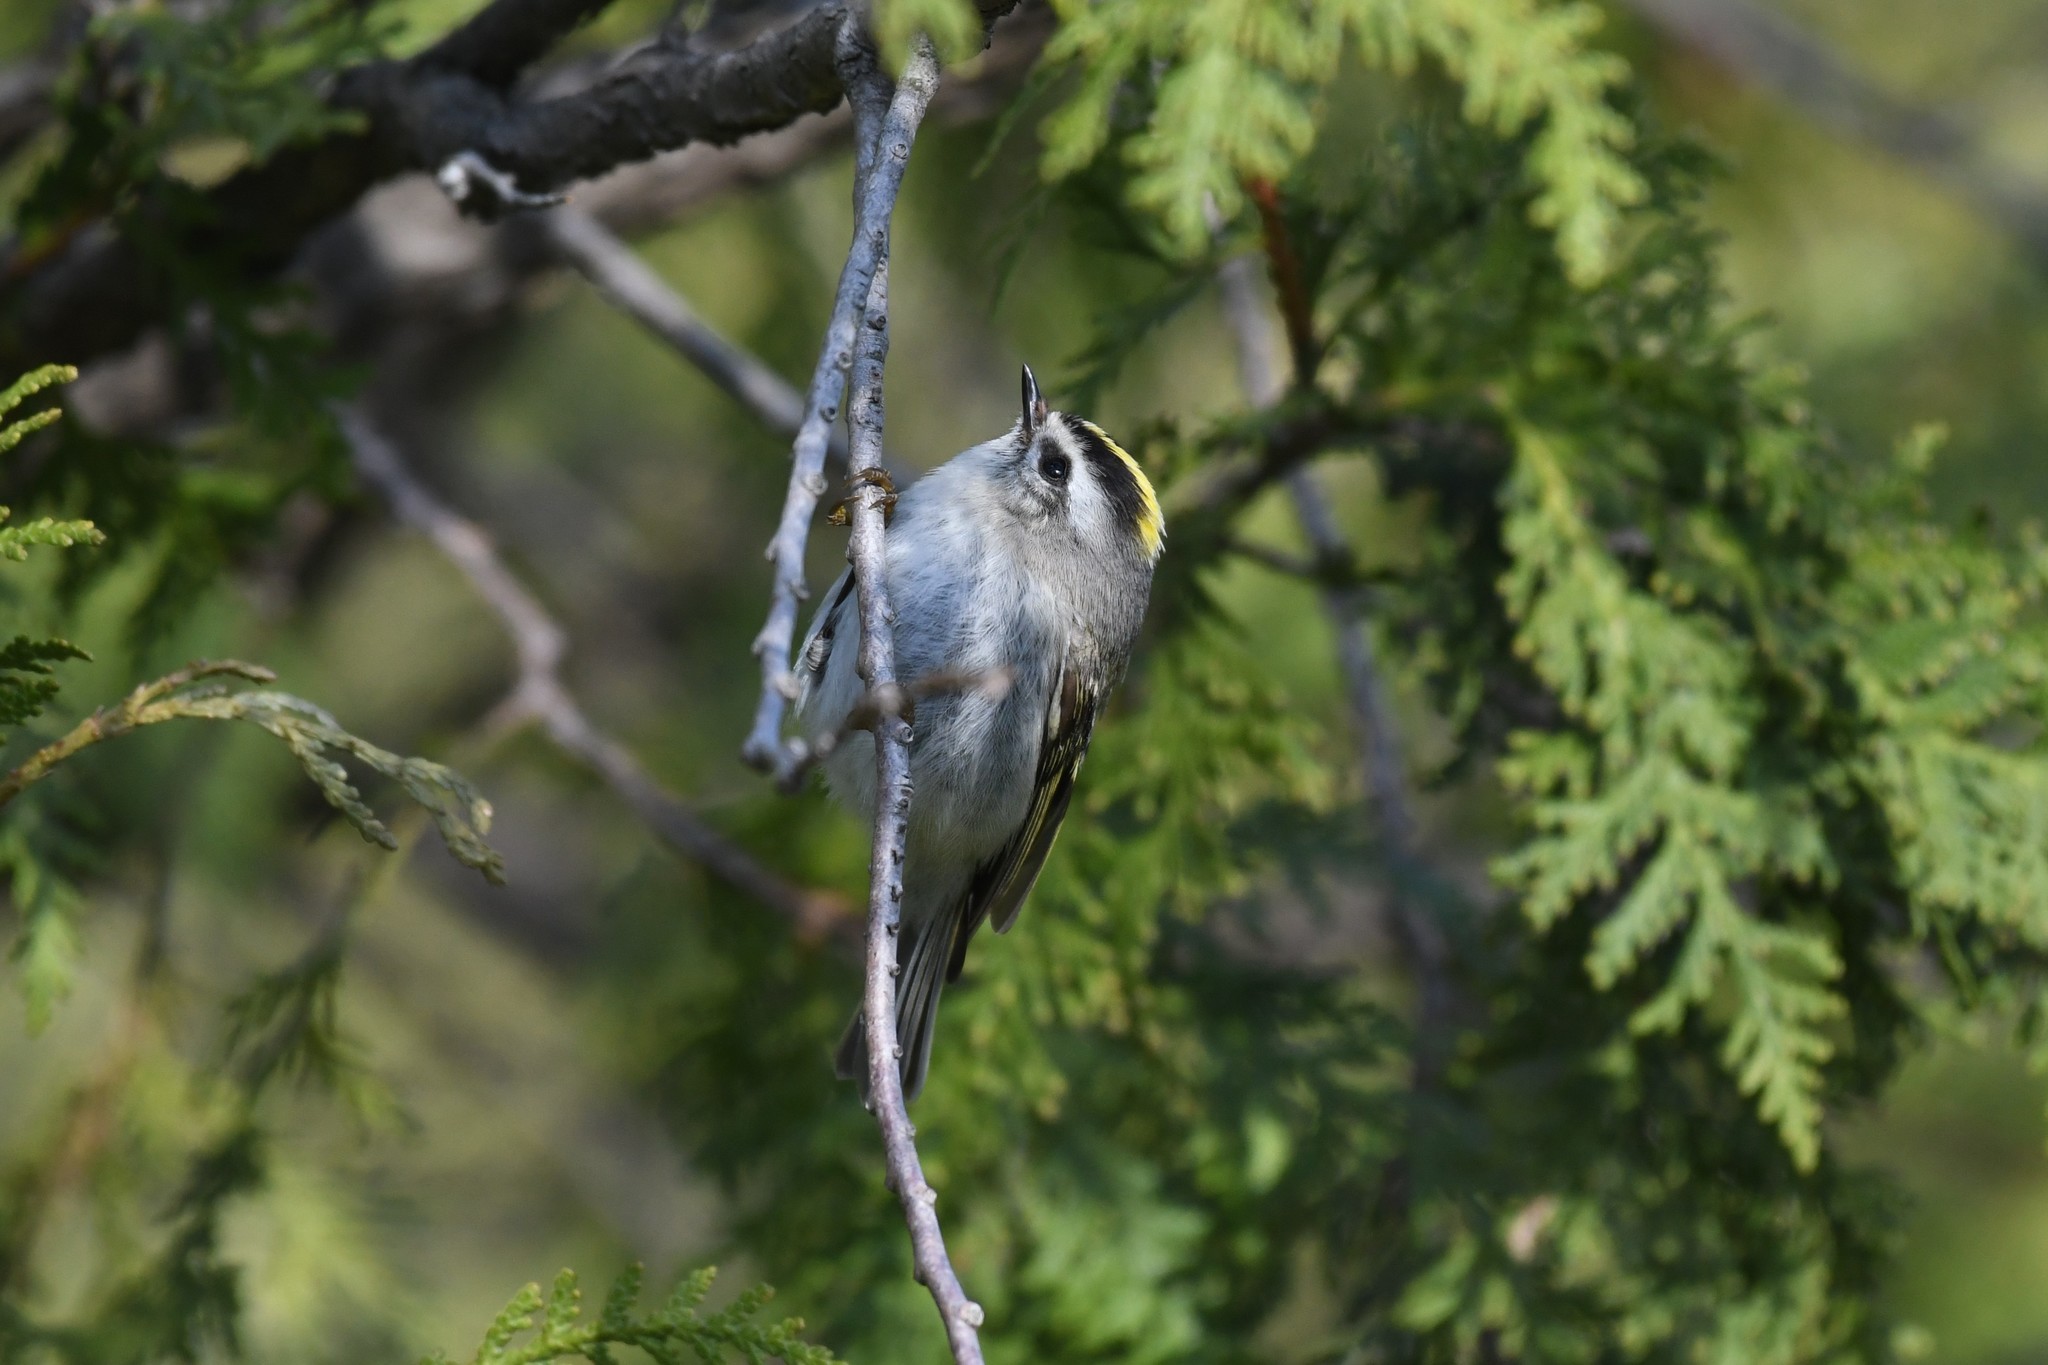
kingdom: Animalia
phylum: Chordata
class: Aves
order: Passeriformes
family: Regulidae
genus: Regulus
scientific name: Regulus satrapa
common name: Golden-crowned kinglet
